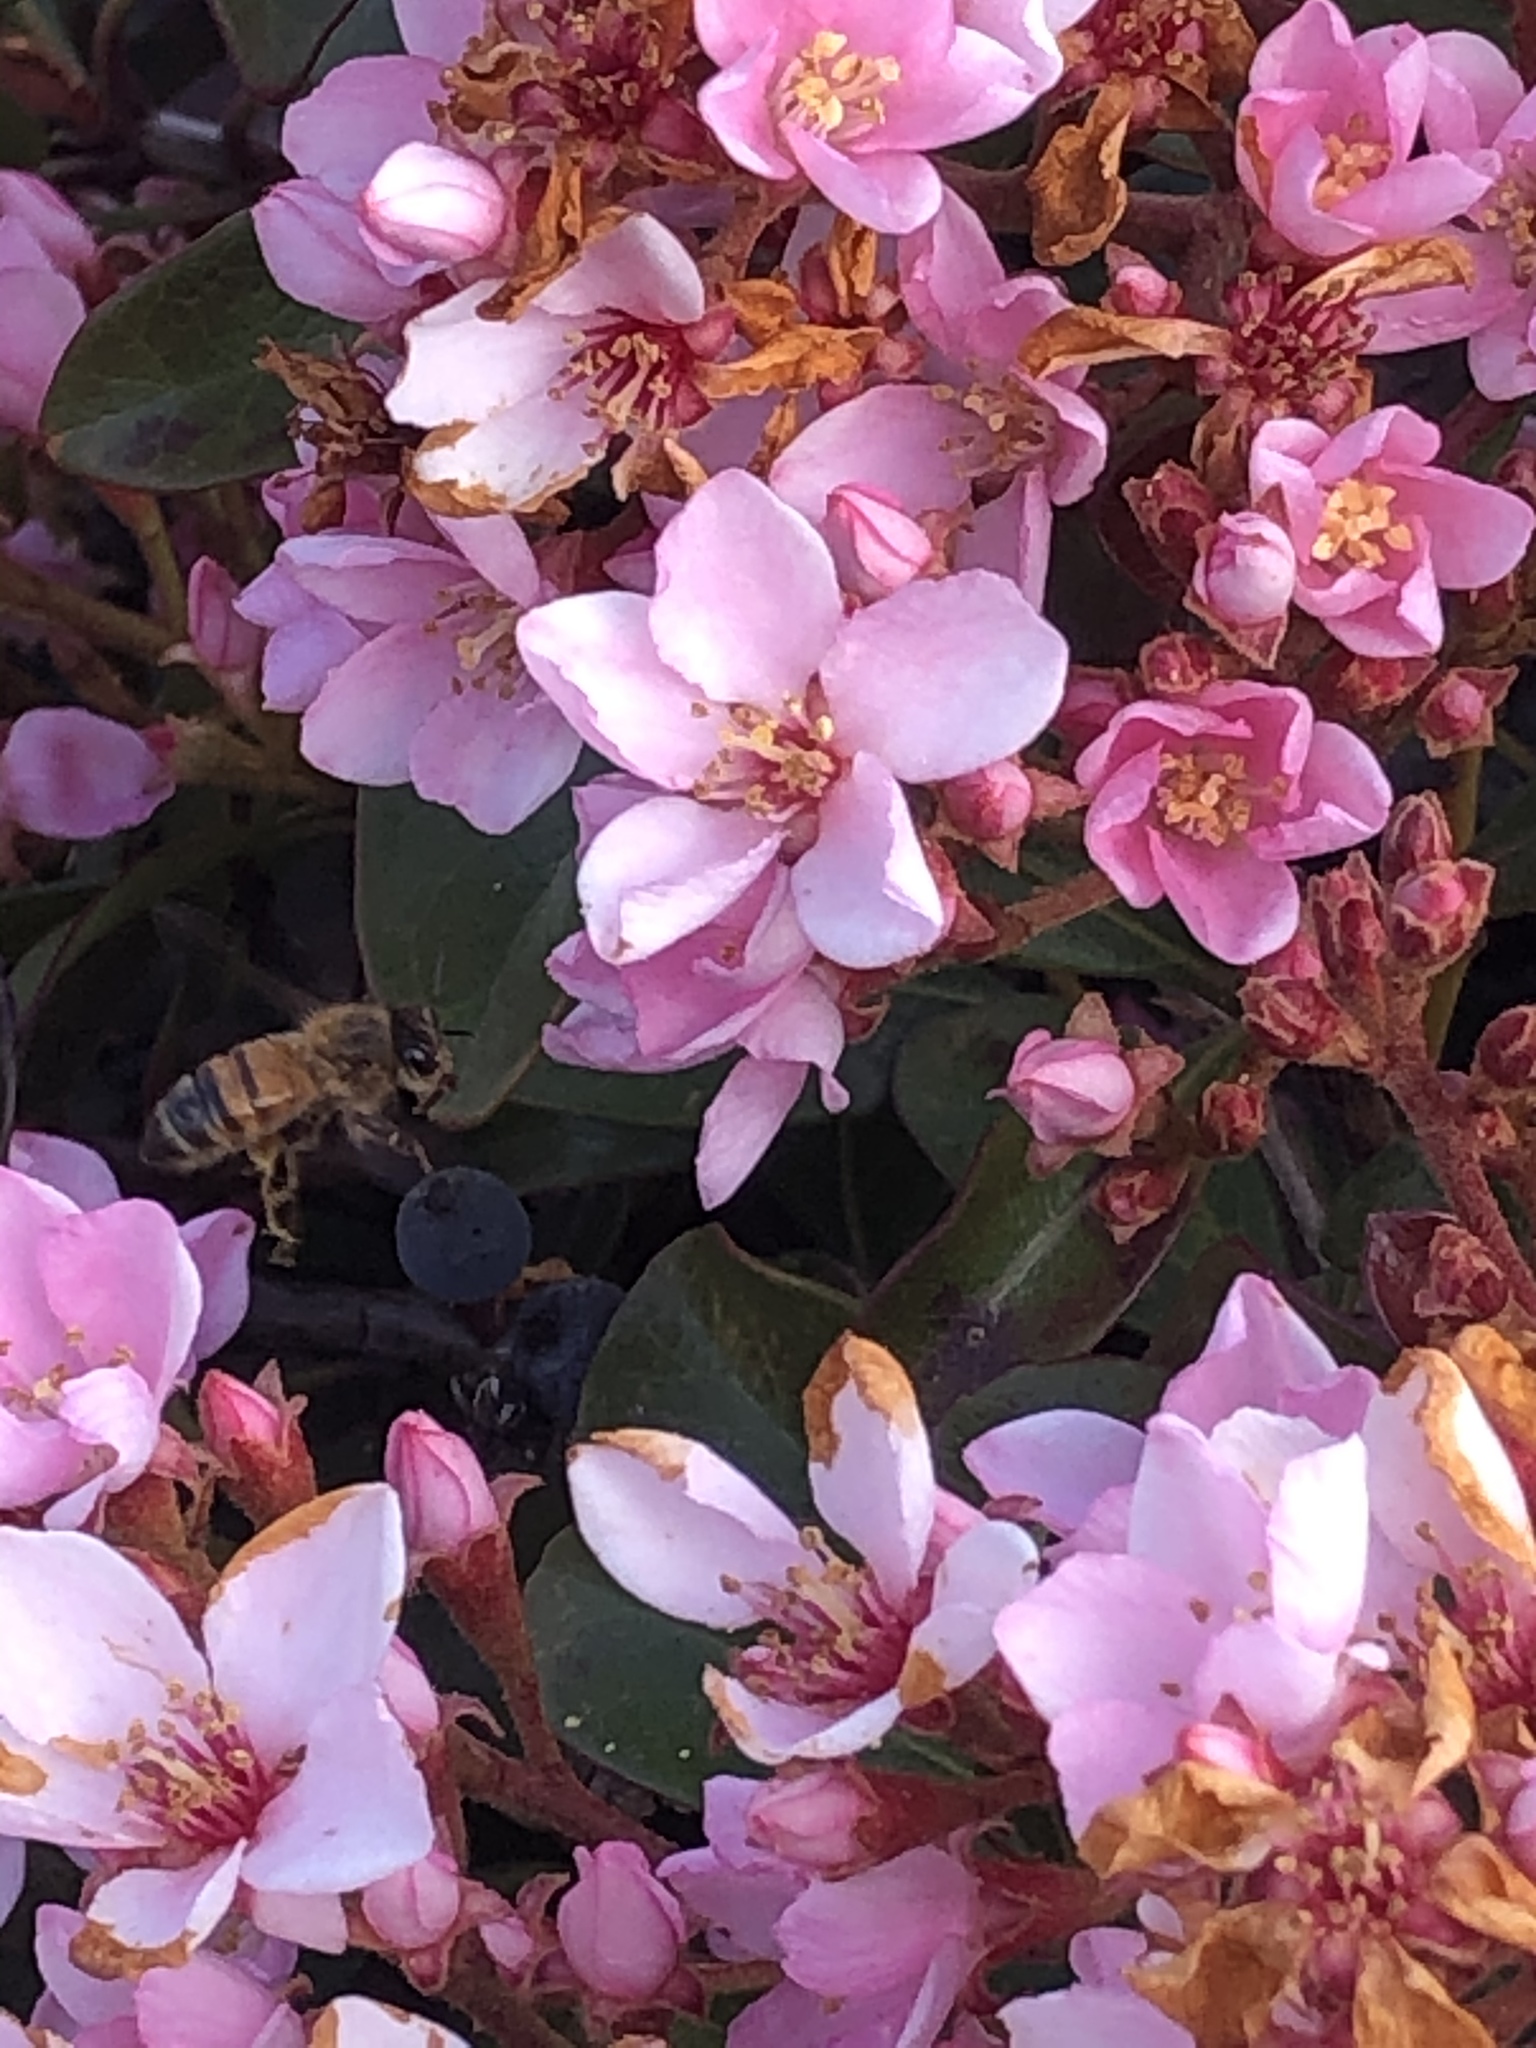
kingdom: Animalia
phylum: Arthropoda
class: Insecta
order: Hymenoptera
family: Apidae
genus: Apis
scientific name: Apis mellifera
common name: Honey bee
